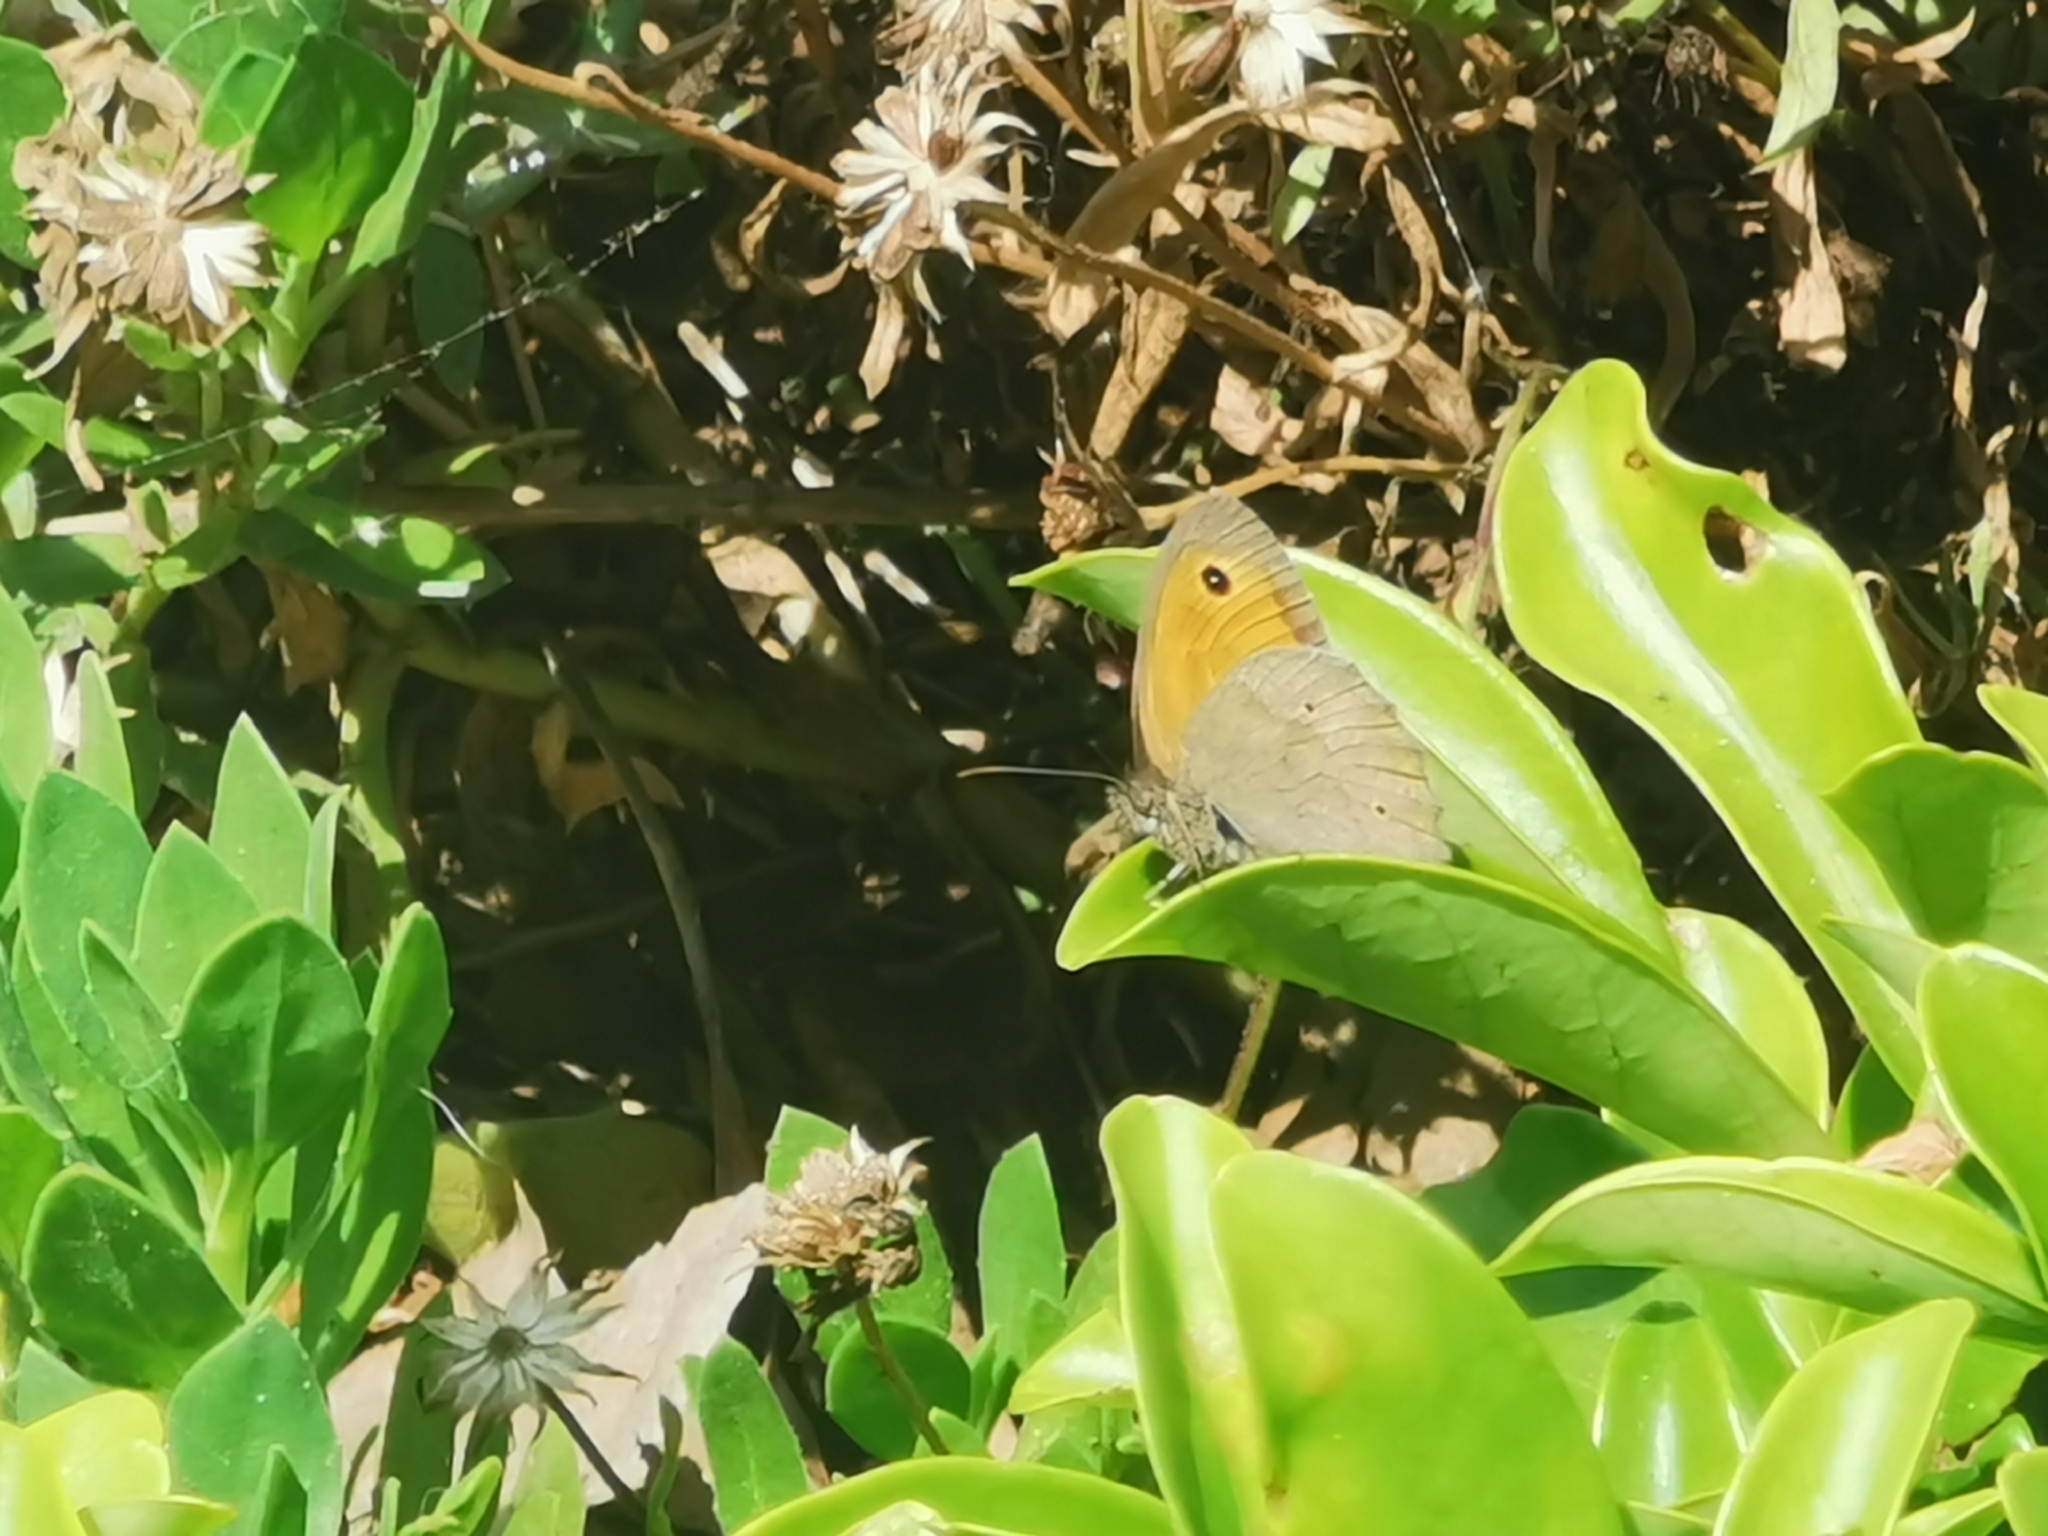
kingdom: Animalia
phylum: Arthropoda
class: Insecta
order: Lepidoptera
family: Nymphalidae
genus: Maniola
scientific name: Maniola jurtina
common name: Meadow brown
